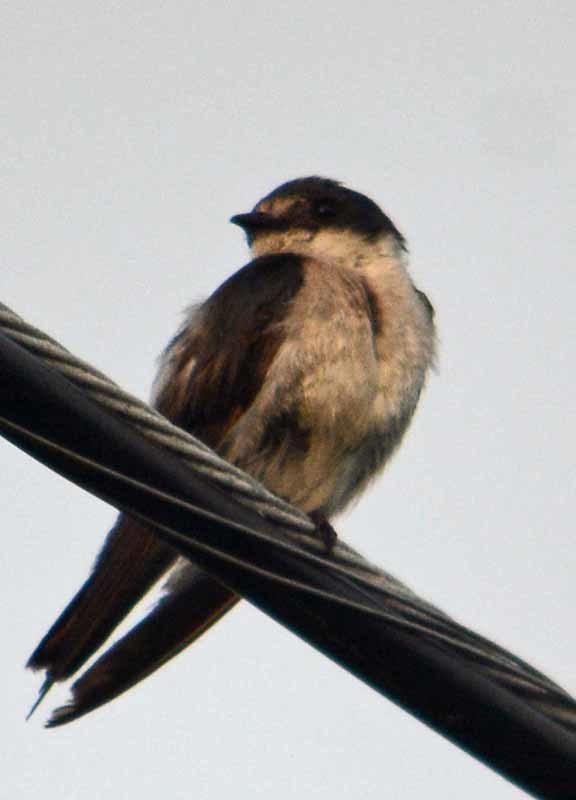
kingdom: Animalia
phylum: Chordata
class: Aves
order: Passeriformes
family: Hirundinidae
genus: Tachycineta
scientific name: Tachycineta albilinea
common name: Mangrove swallow
